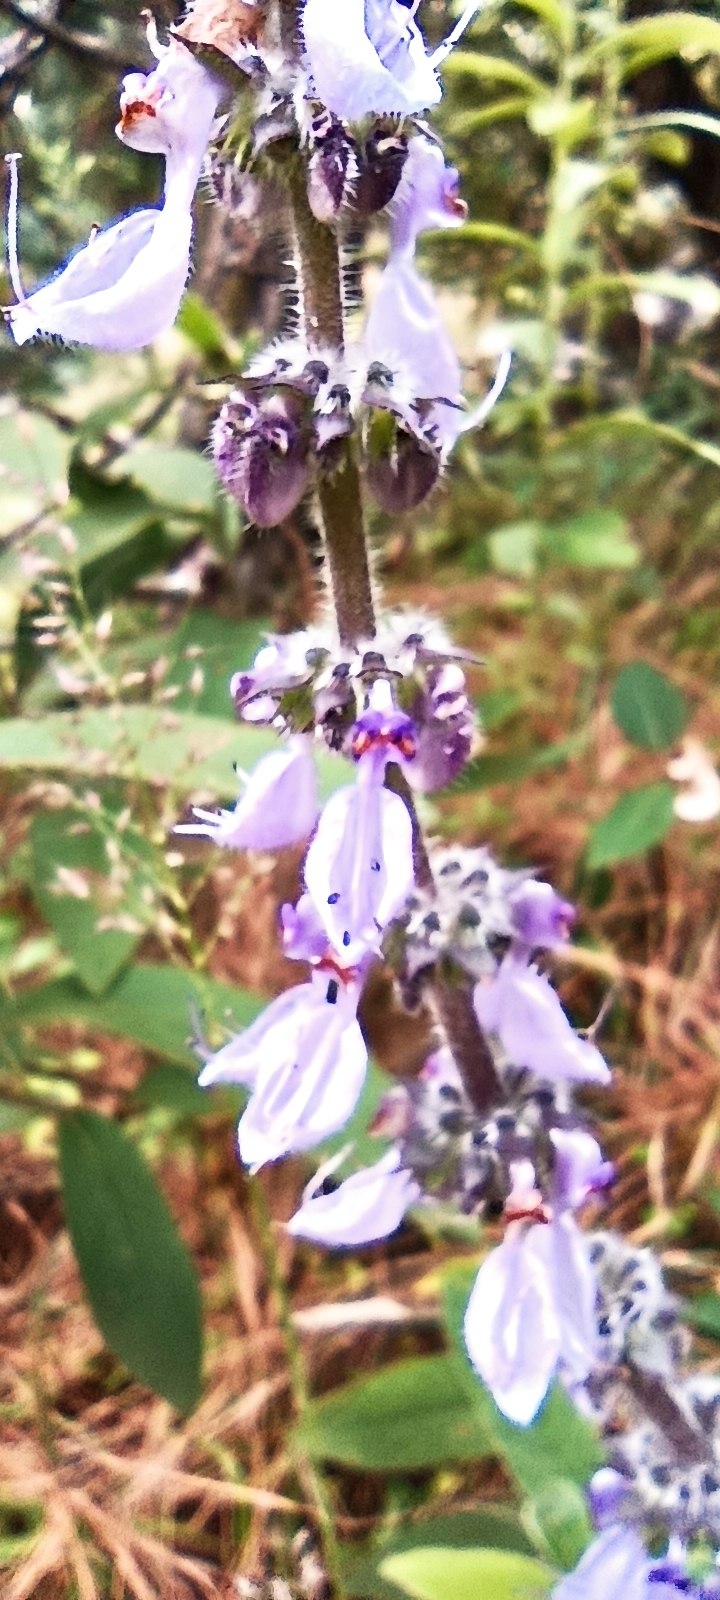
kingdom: Plantae
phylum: Tracheophyta
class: Magnoliopsida
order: Lamiales
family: Lamiaceae
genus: Coleus
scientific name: Coleus barbatus
